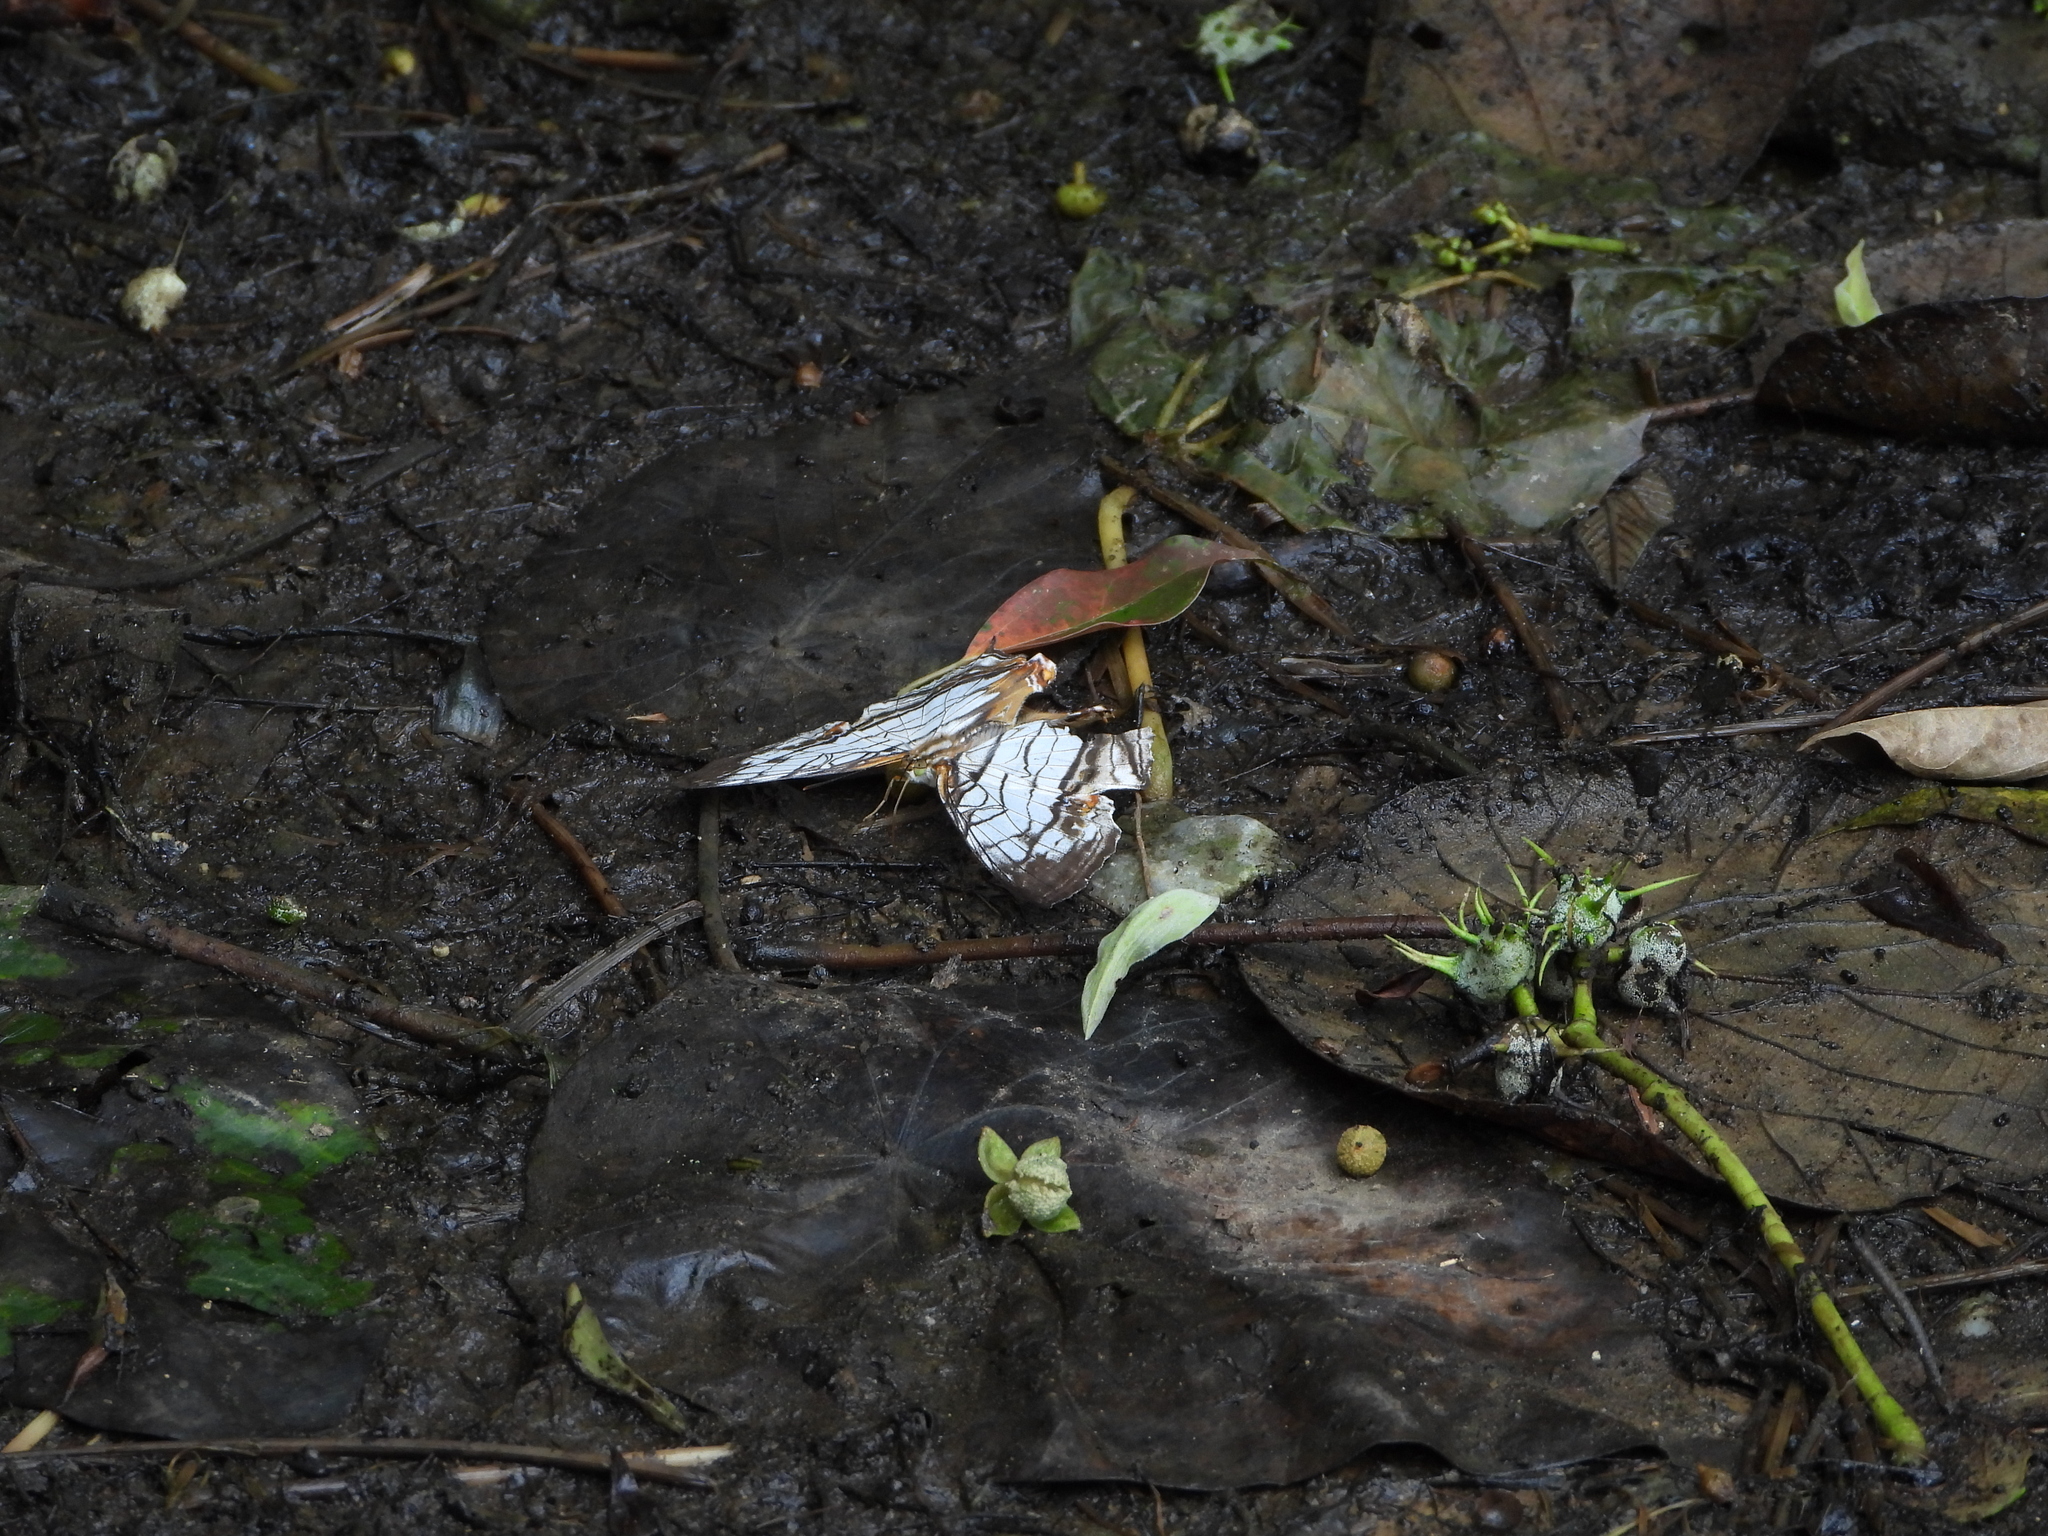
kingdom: Animalia
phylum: Arthropoda
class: Insecta
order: Lepidoptera
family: Nymphalidae
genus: Cyrestis
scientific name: Cyrestis thyodamas
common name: Common mapwing
